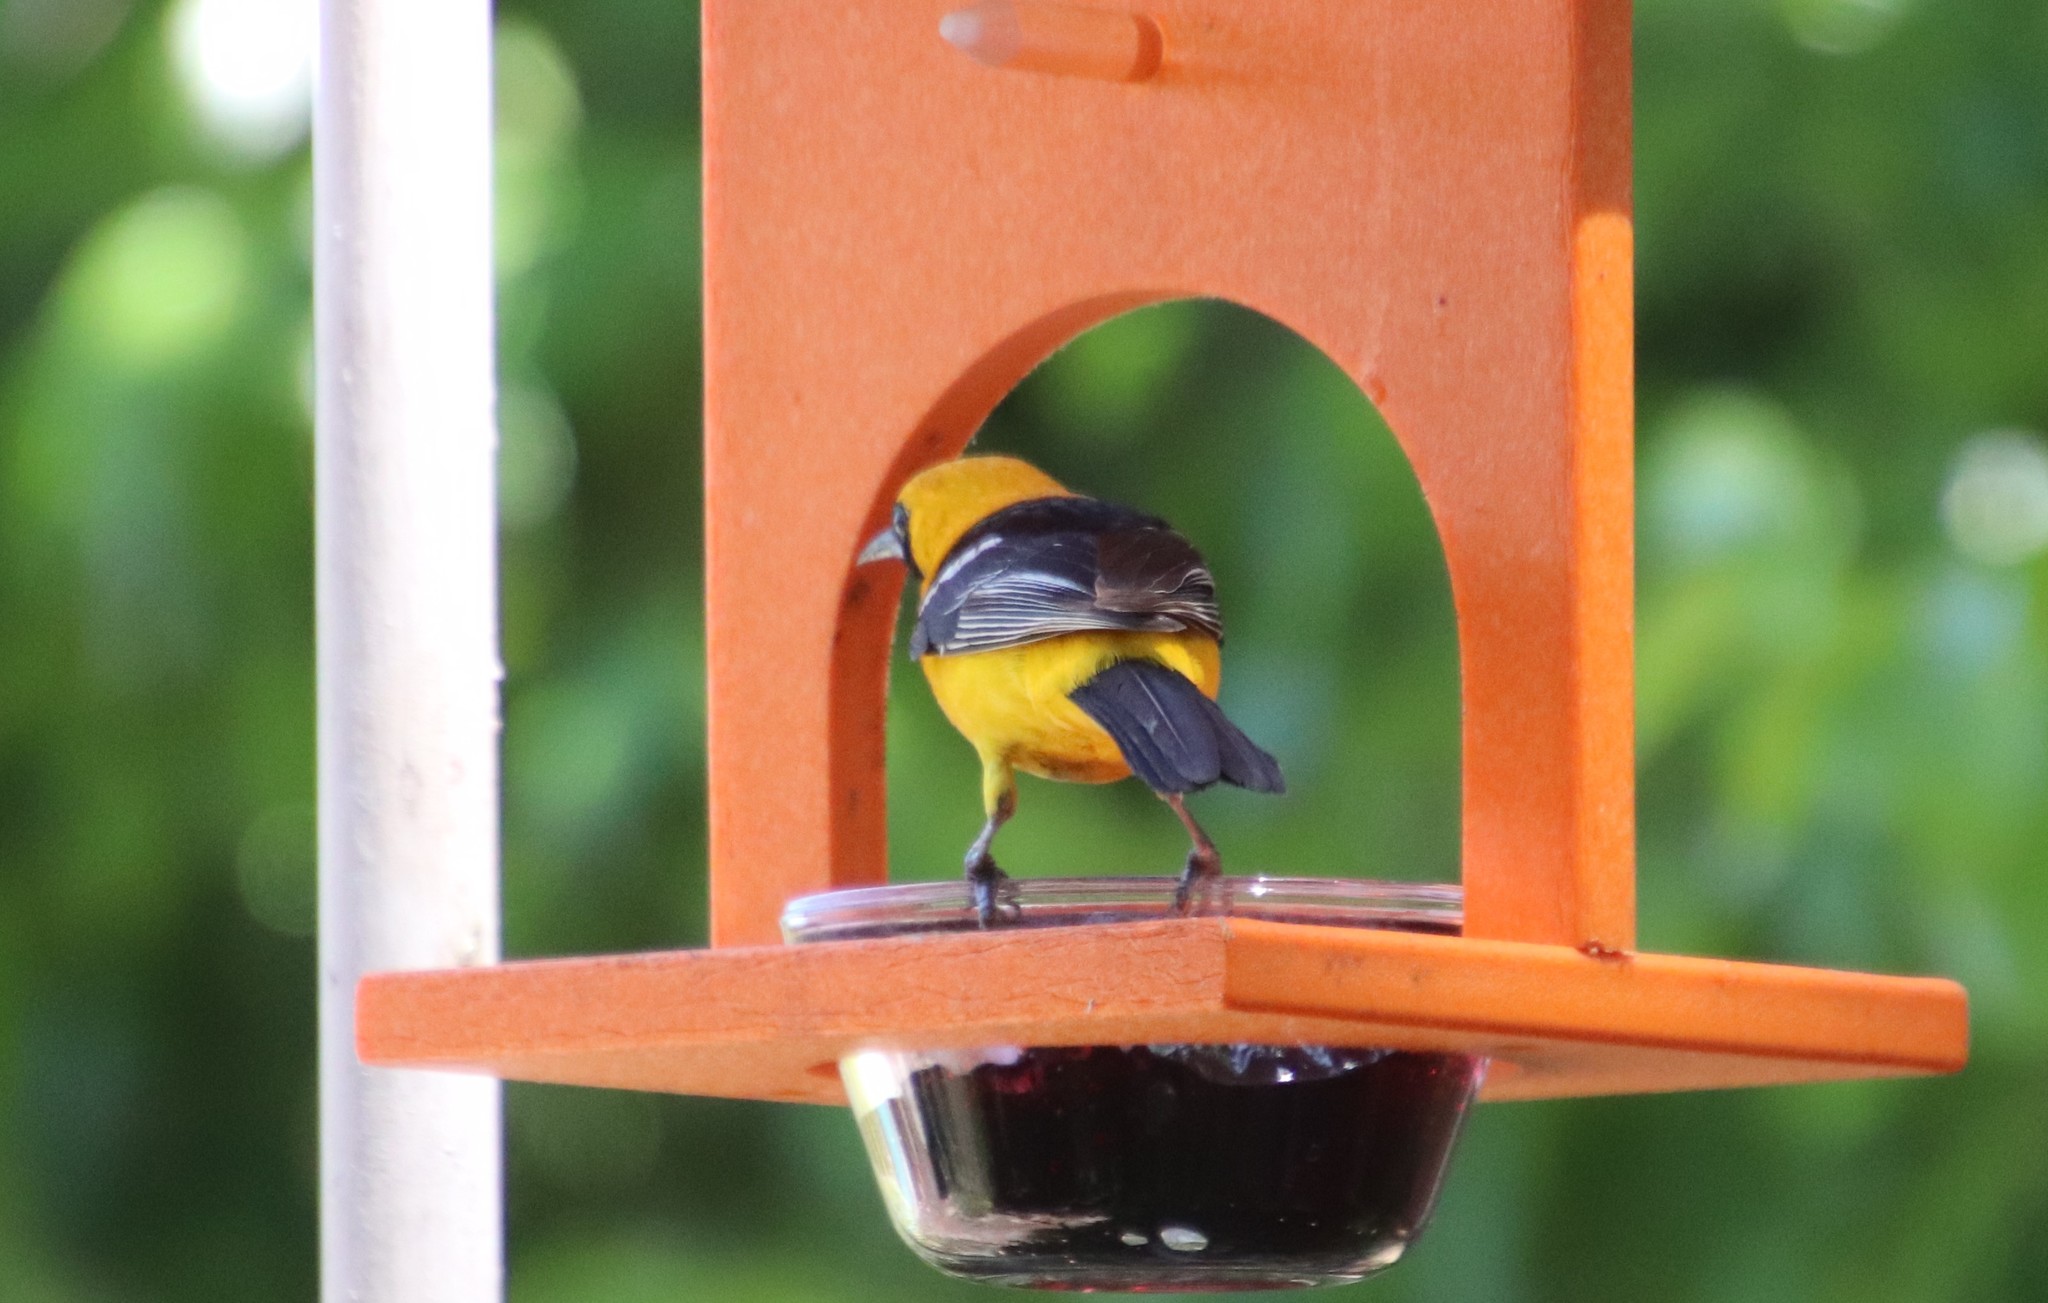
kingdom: Animalia
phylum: Chordata
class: Aves
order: Passeriformes
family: Icteridae
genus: Icterus
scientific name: Icterus cucullatus
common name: Hooded oriole
